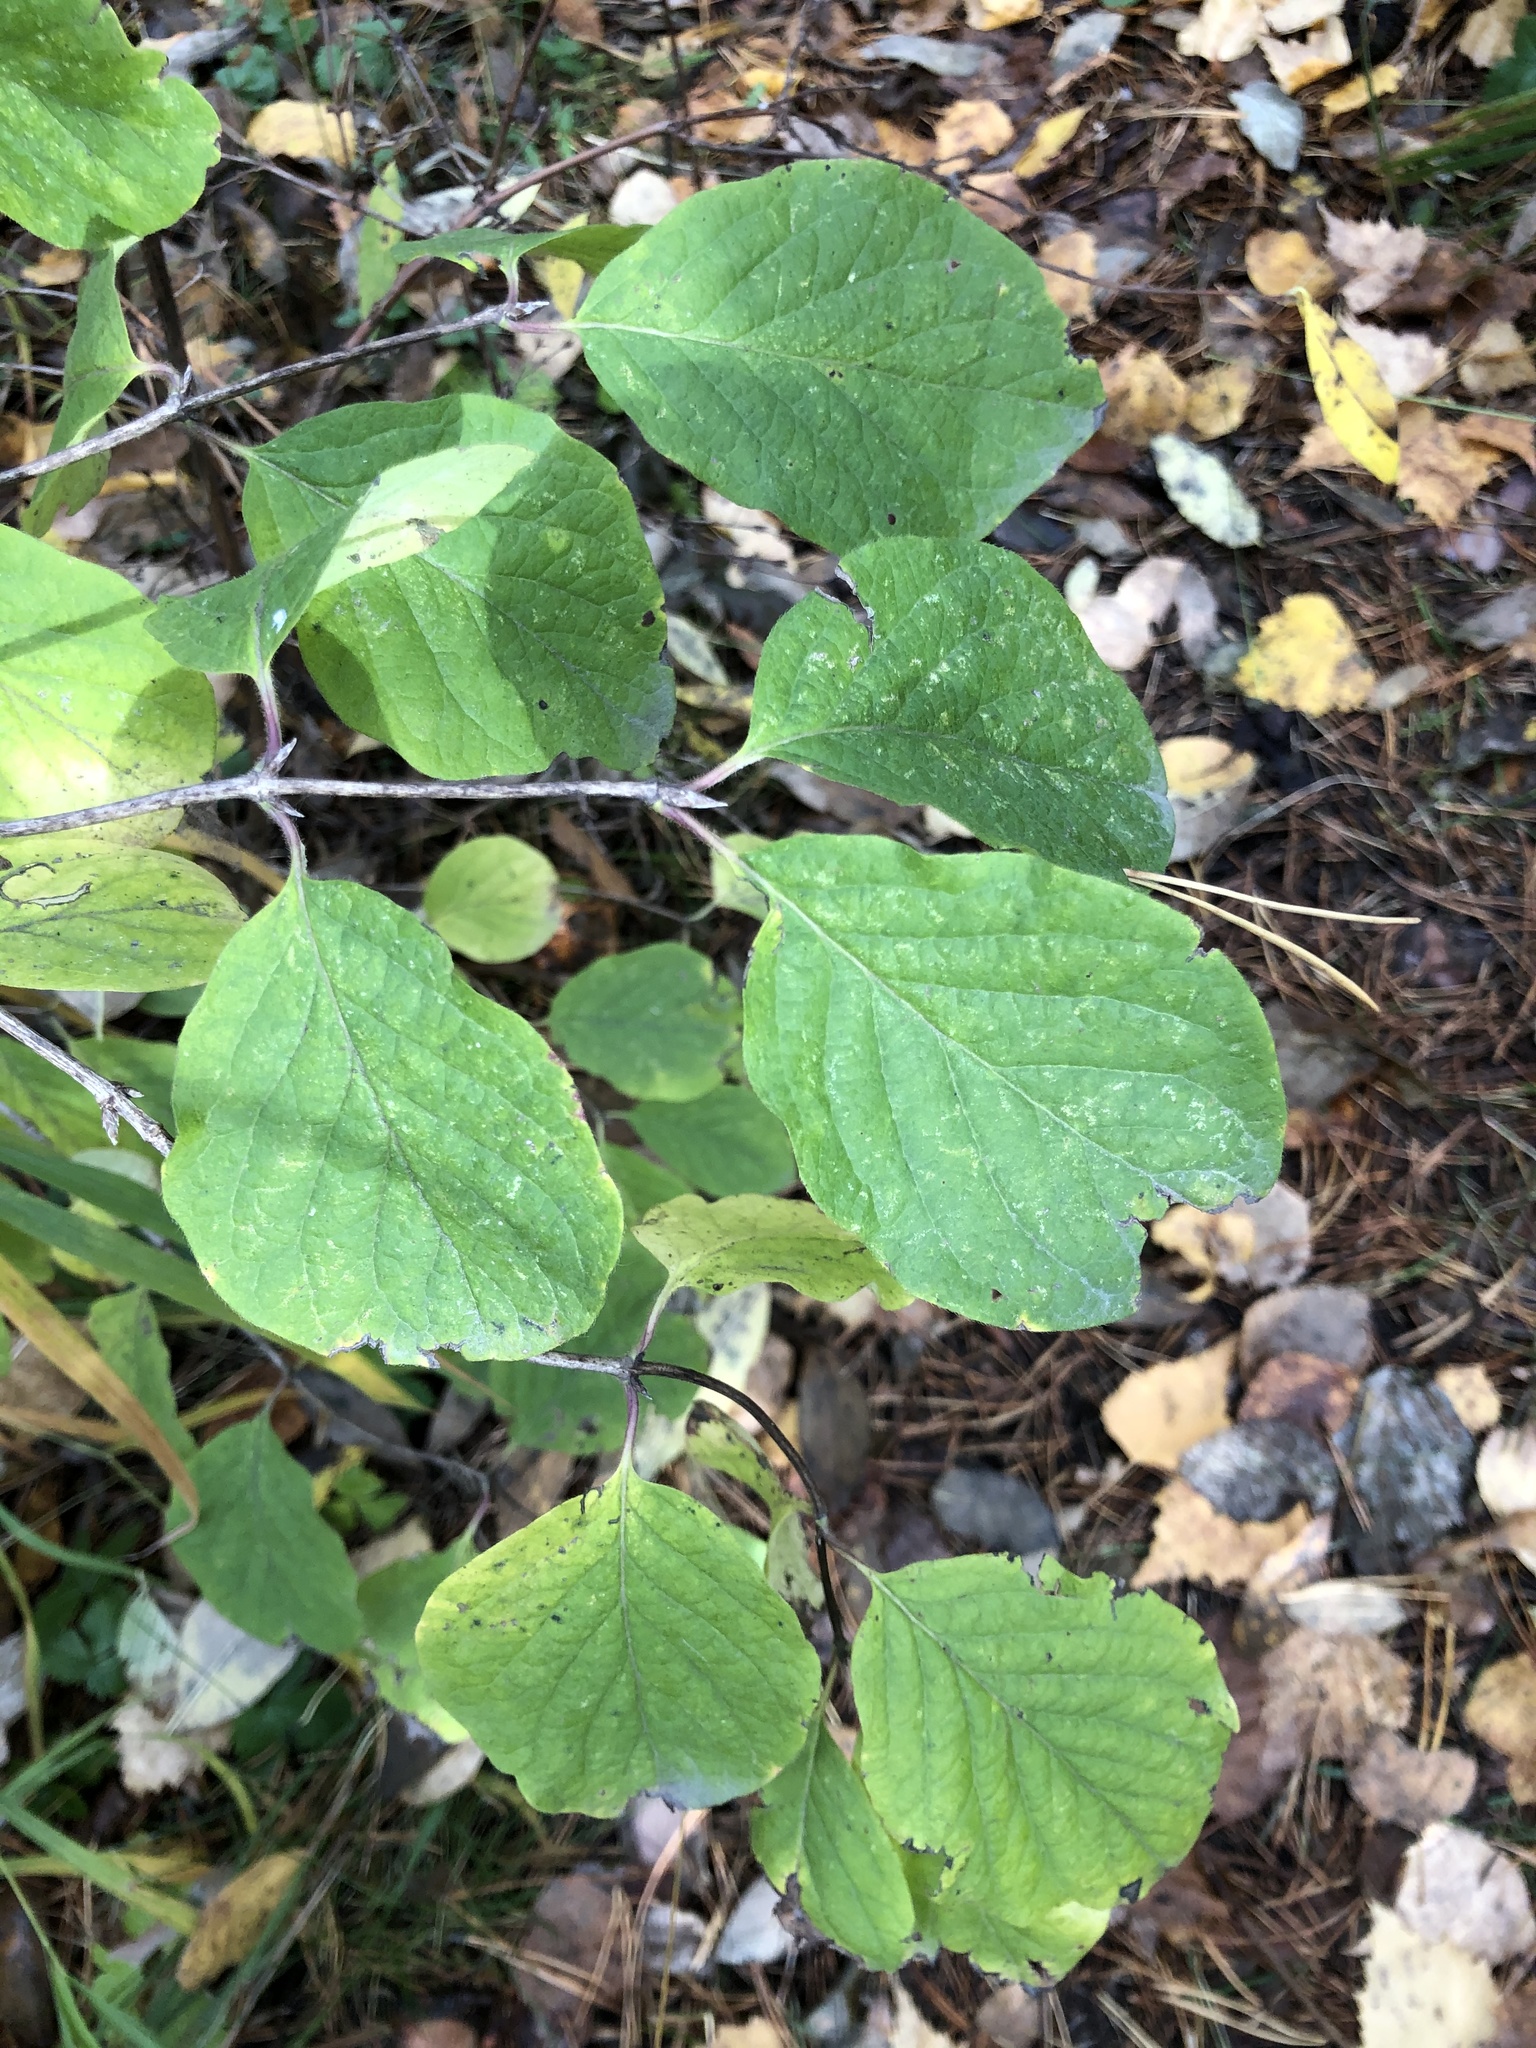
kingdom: Plantae
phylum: Tracheophyta
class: Magnoliopsida
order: Dipsacales
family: Caprifoliaceae
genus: Lonicera
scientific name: Lonicera xylosteum
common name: Fly honeysuckle
